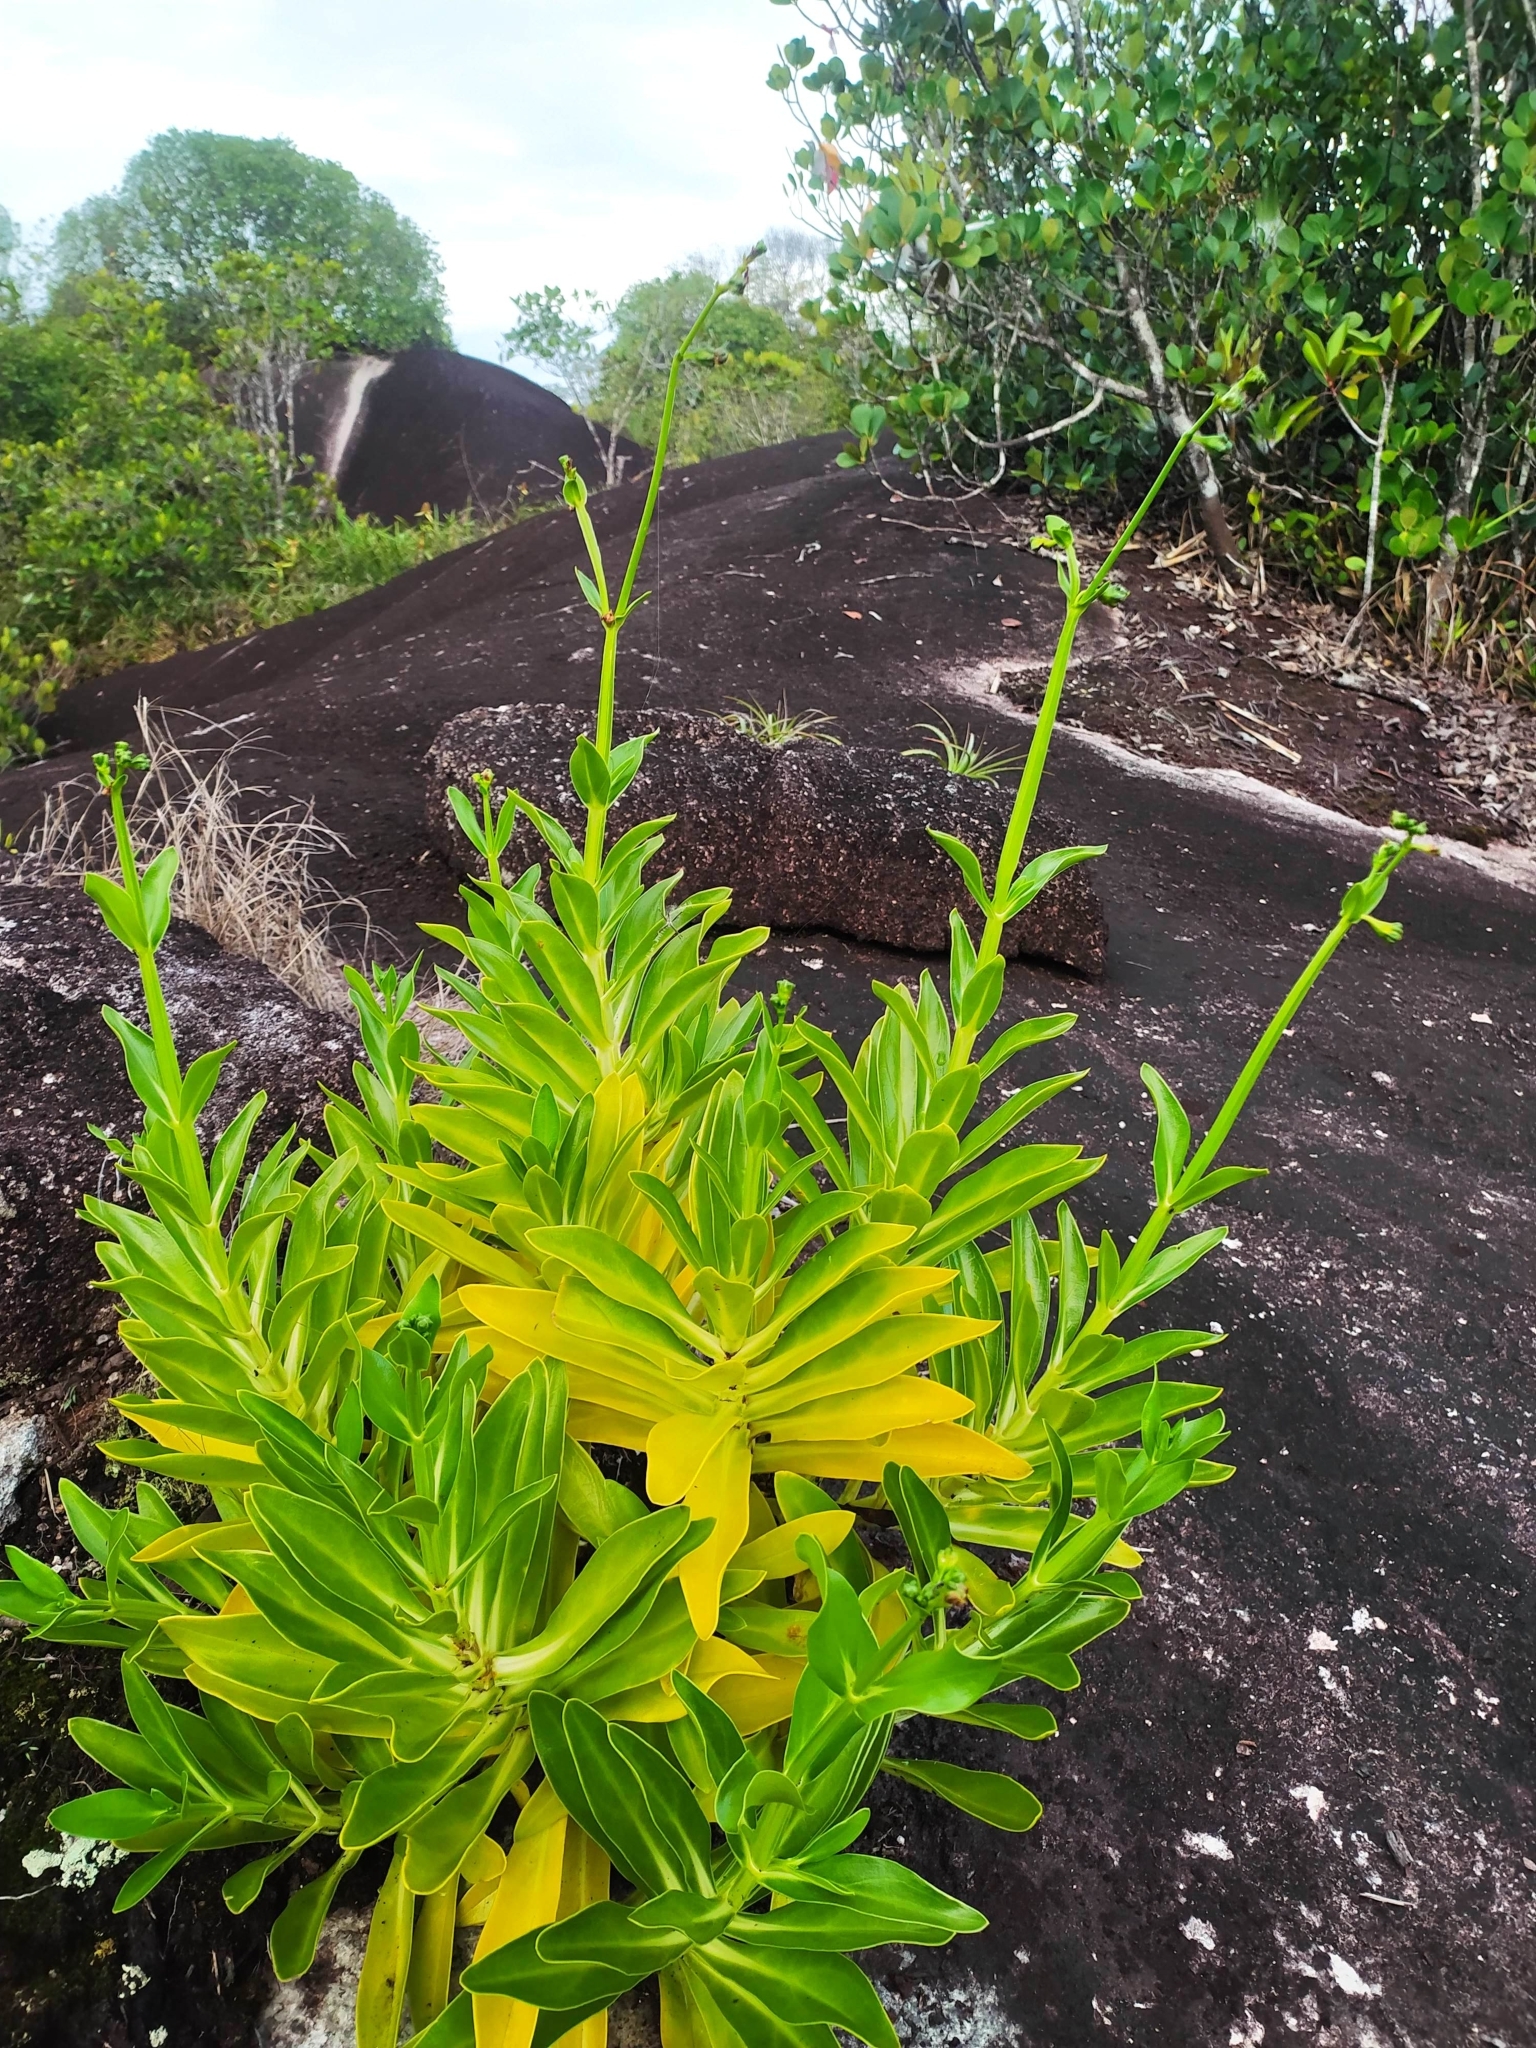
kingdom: Plantae
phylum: Tracheophyta
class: Magnoliopsida
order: Gentianales
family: Gentianaceae
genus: Chelonanthus
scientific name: Chelonanthus hamatus
